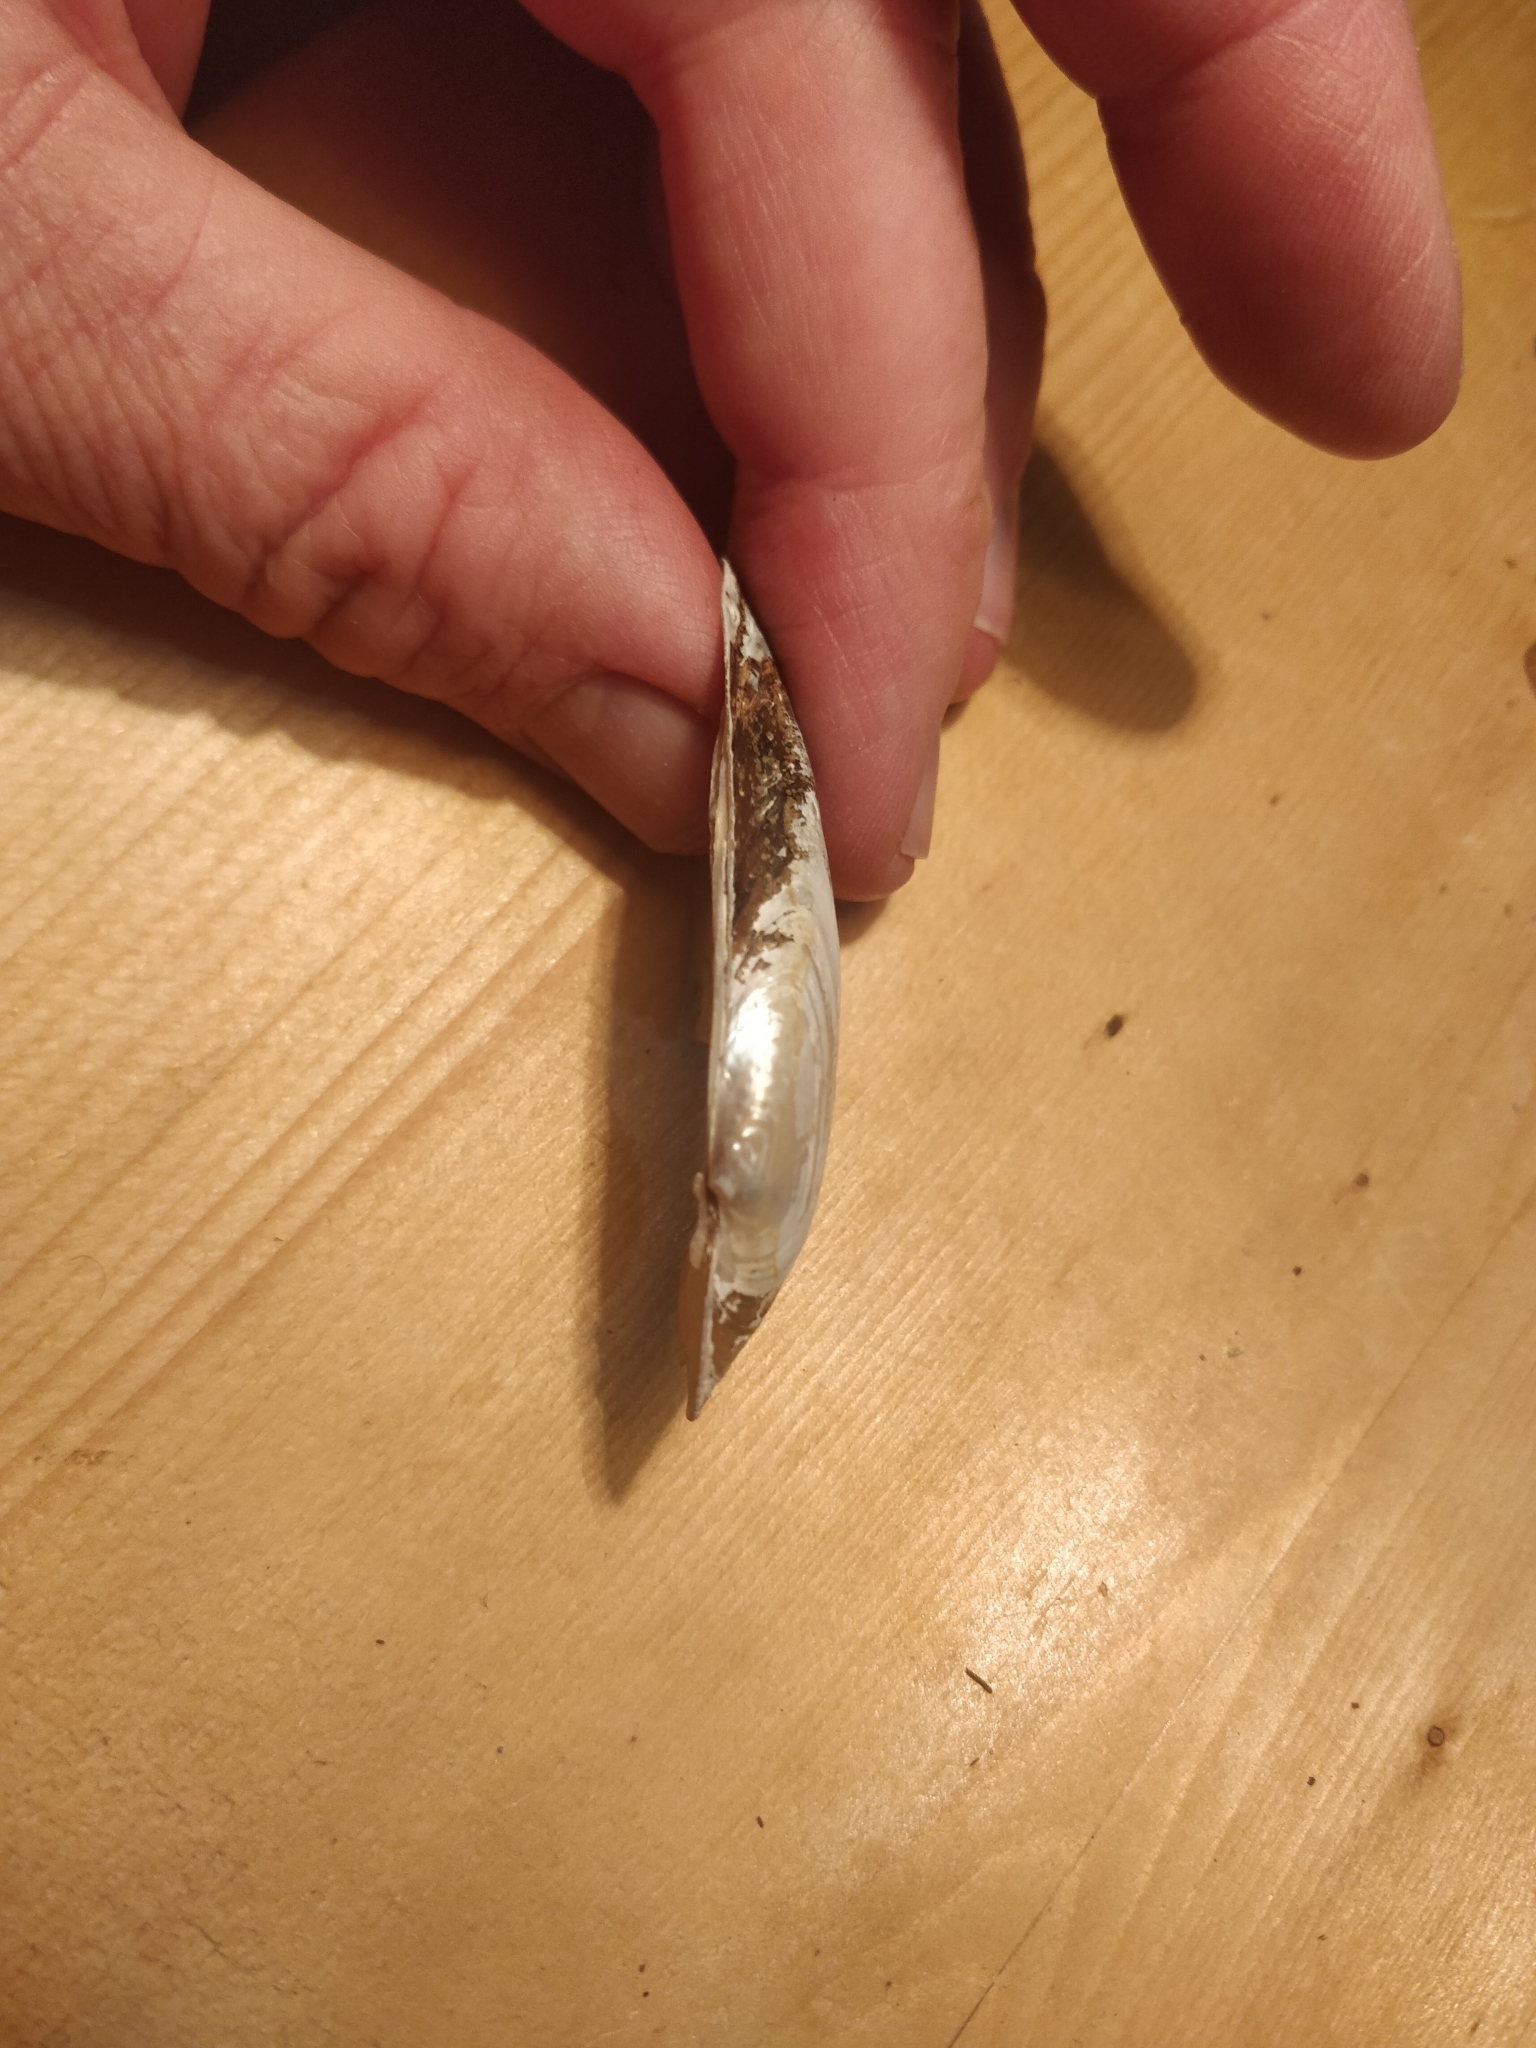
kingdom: Animalia
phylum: Mollusca
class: Bivalvia
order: Unionida
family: Unionidae
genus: Lampsilis
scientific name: Lampsilis teres
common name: Yellow sandshell
